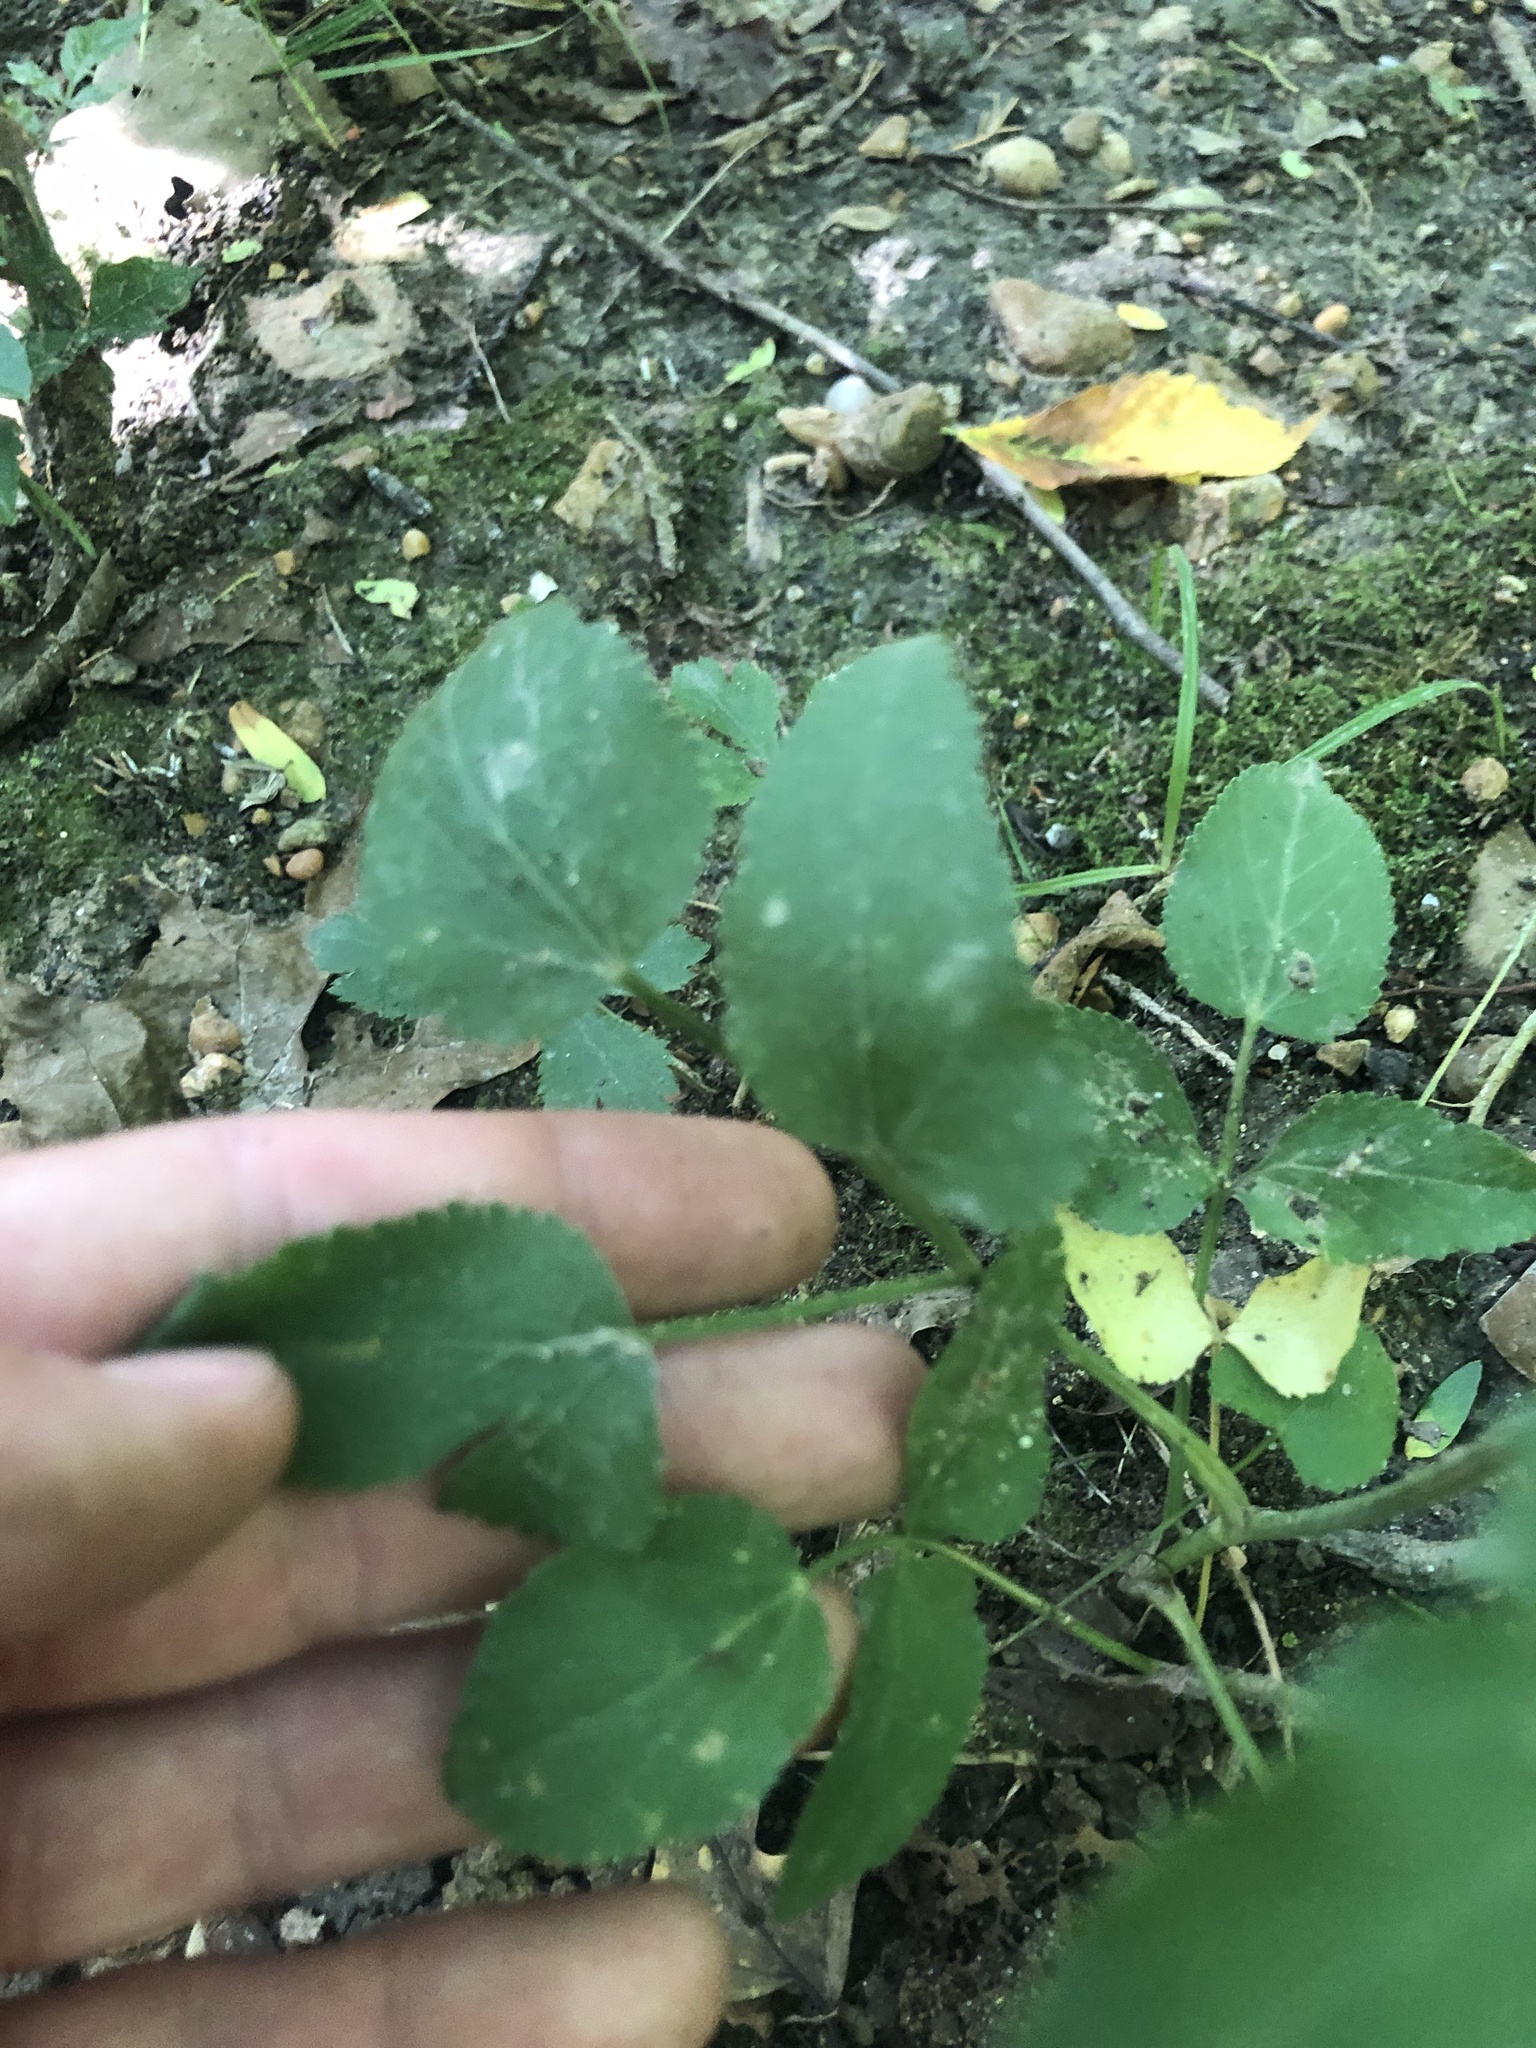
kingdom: Plantae
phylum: Tracheophyta
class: Magnoliopsida
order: Apiales
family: Apiaceae
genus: Thaspium
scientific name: Thaspium trifoliatum
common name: Purple meadow-parsnip
